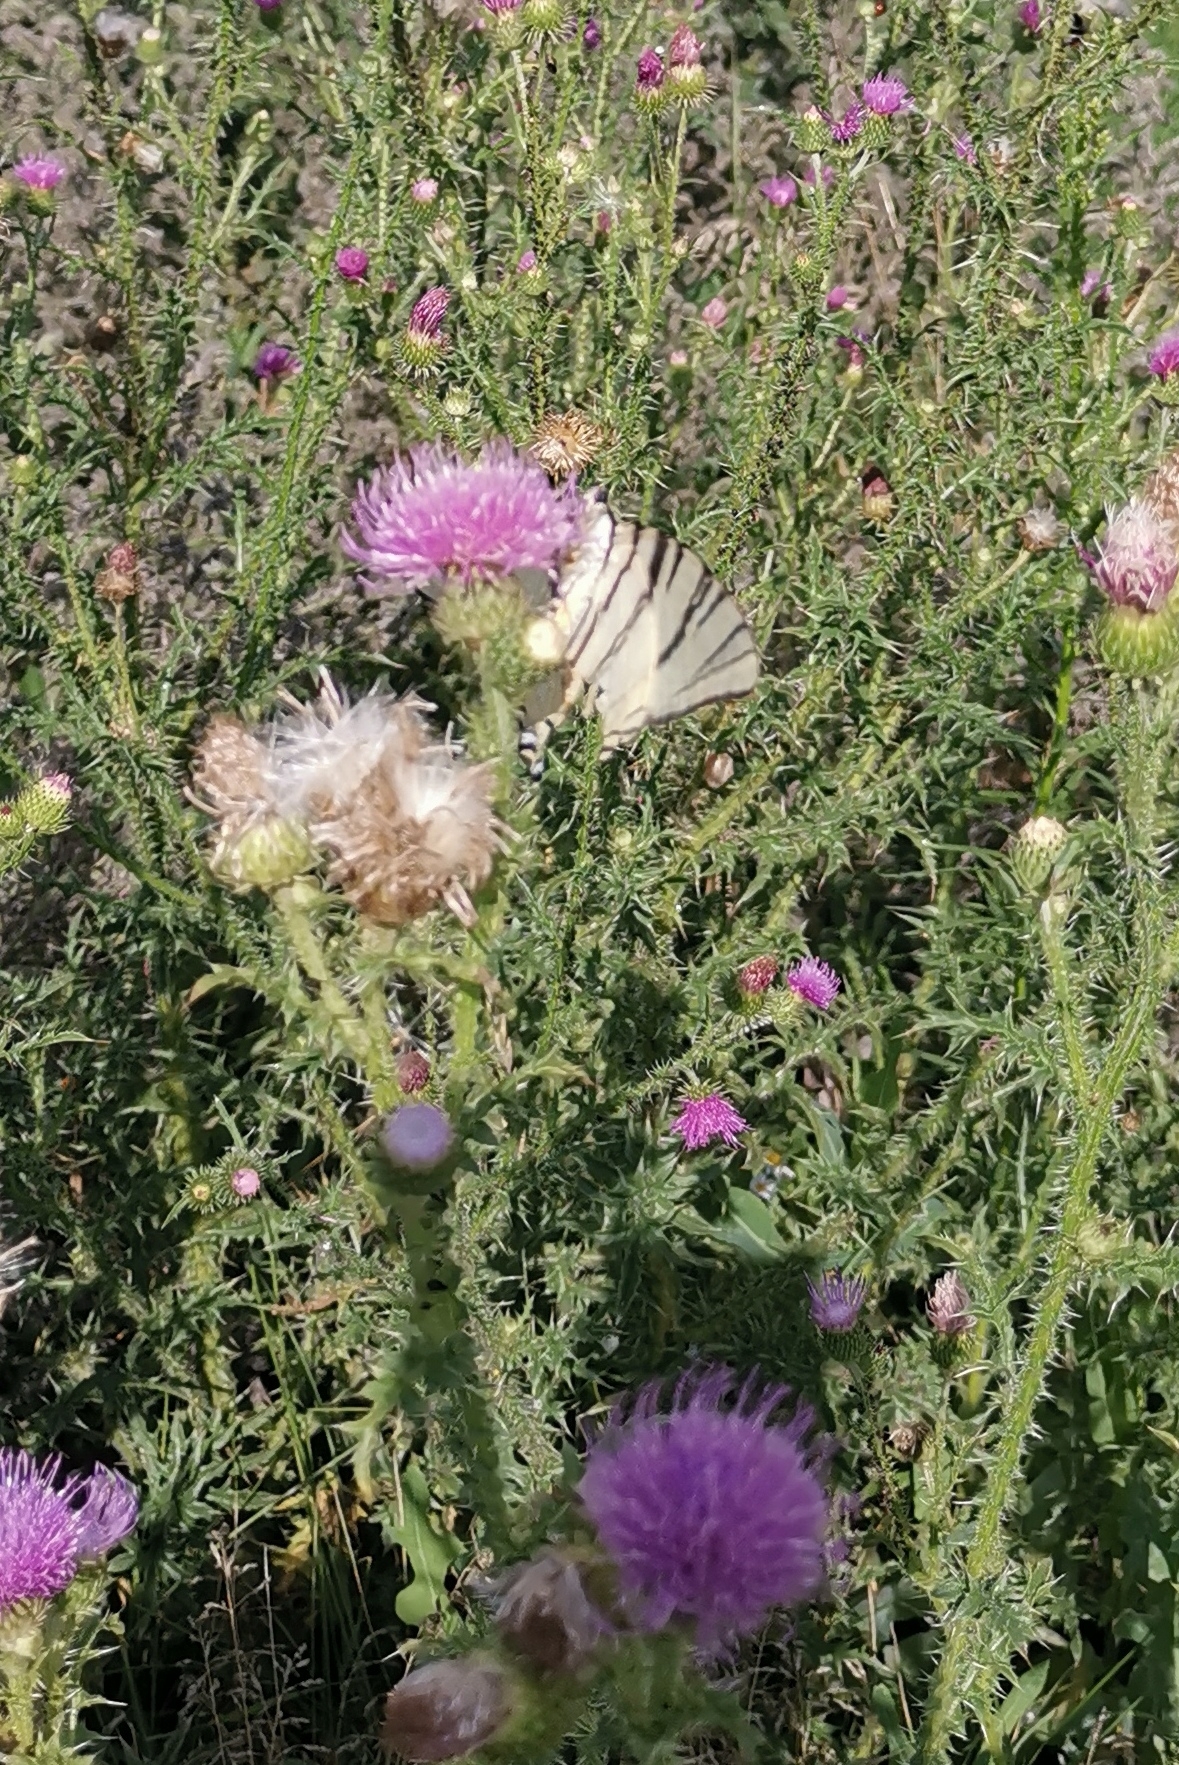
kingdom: Animalia
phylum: Arthropoda
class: Insecta
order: Lepidoptera
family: Papilionidae
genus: Iphiclides
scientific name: Iphiclides podalirius
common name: Scarce swallowtail
